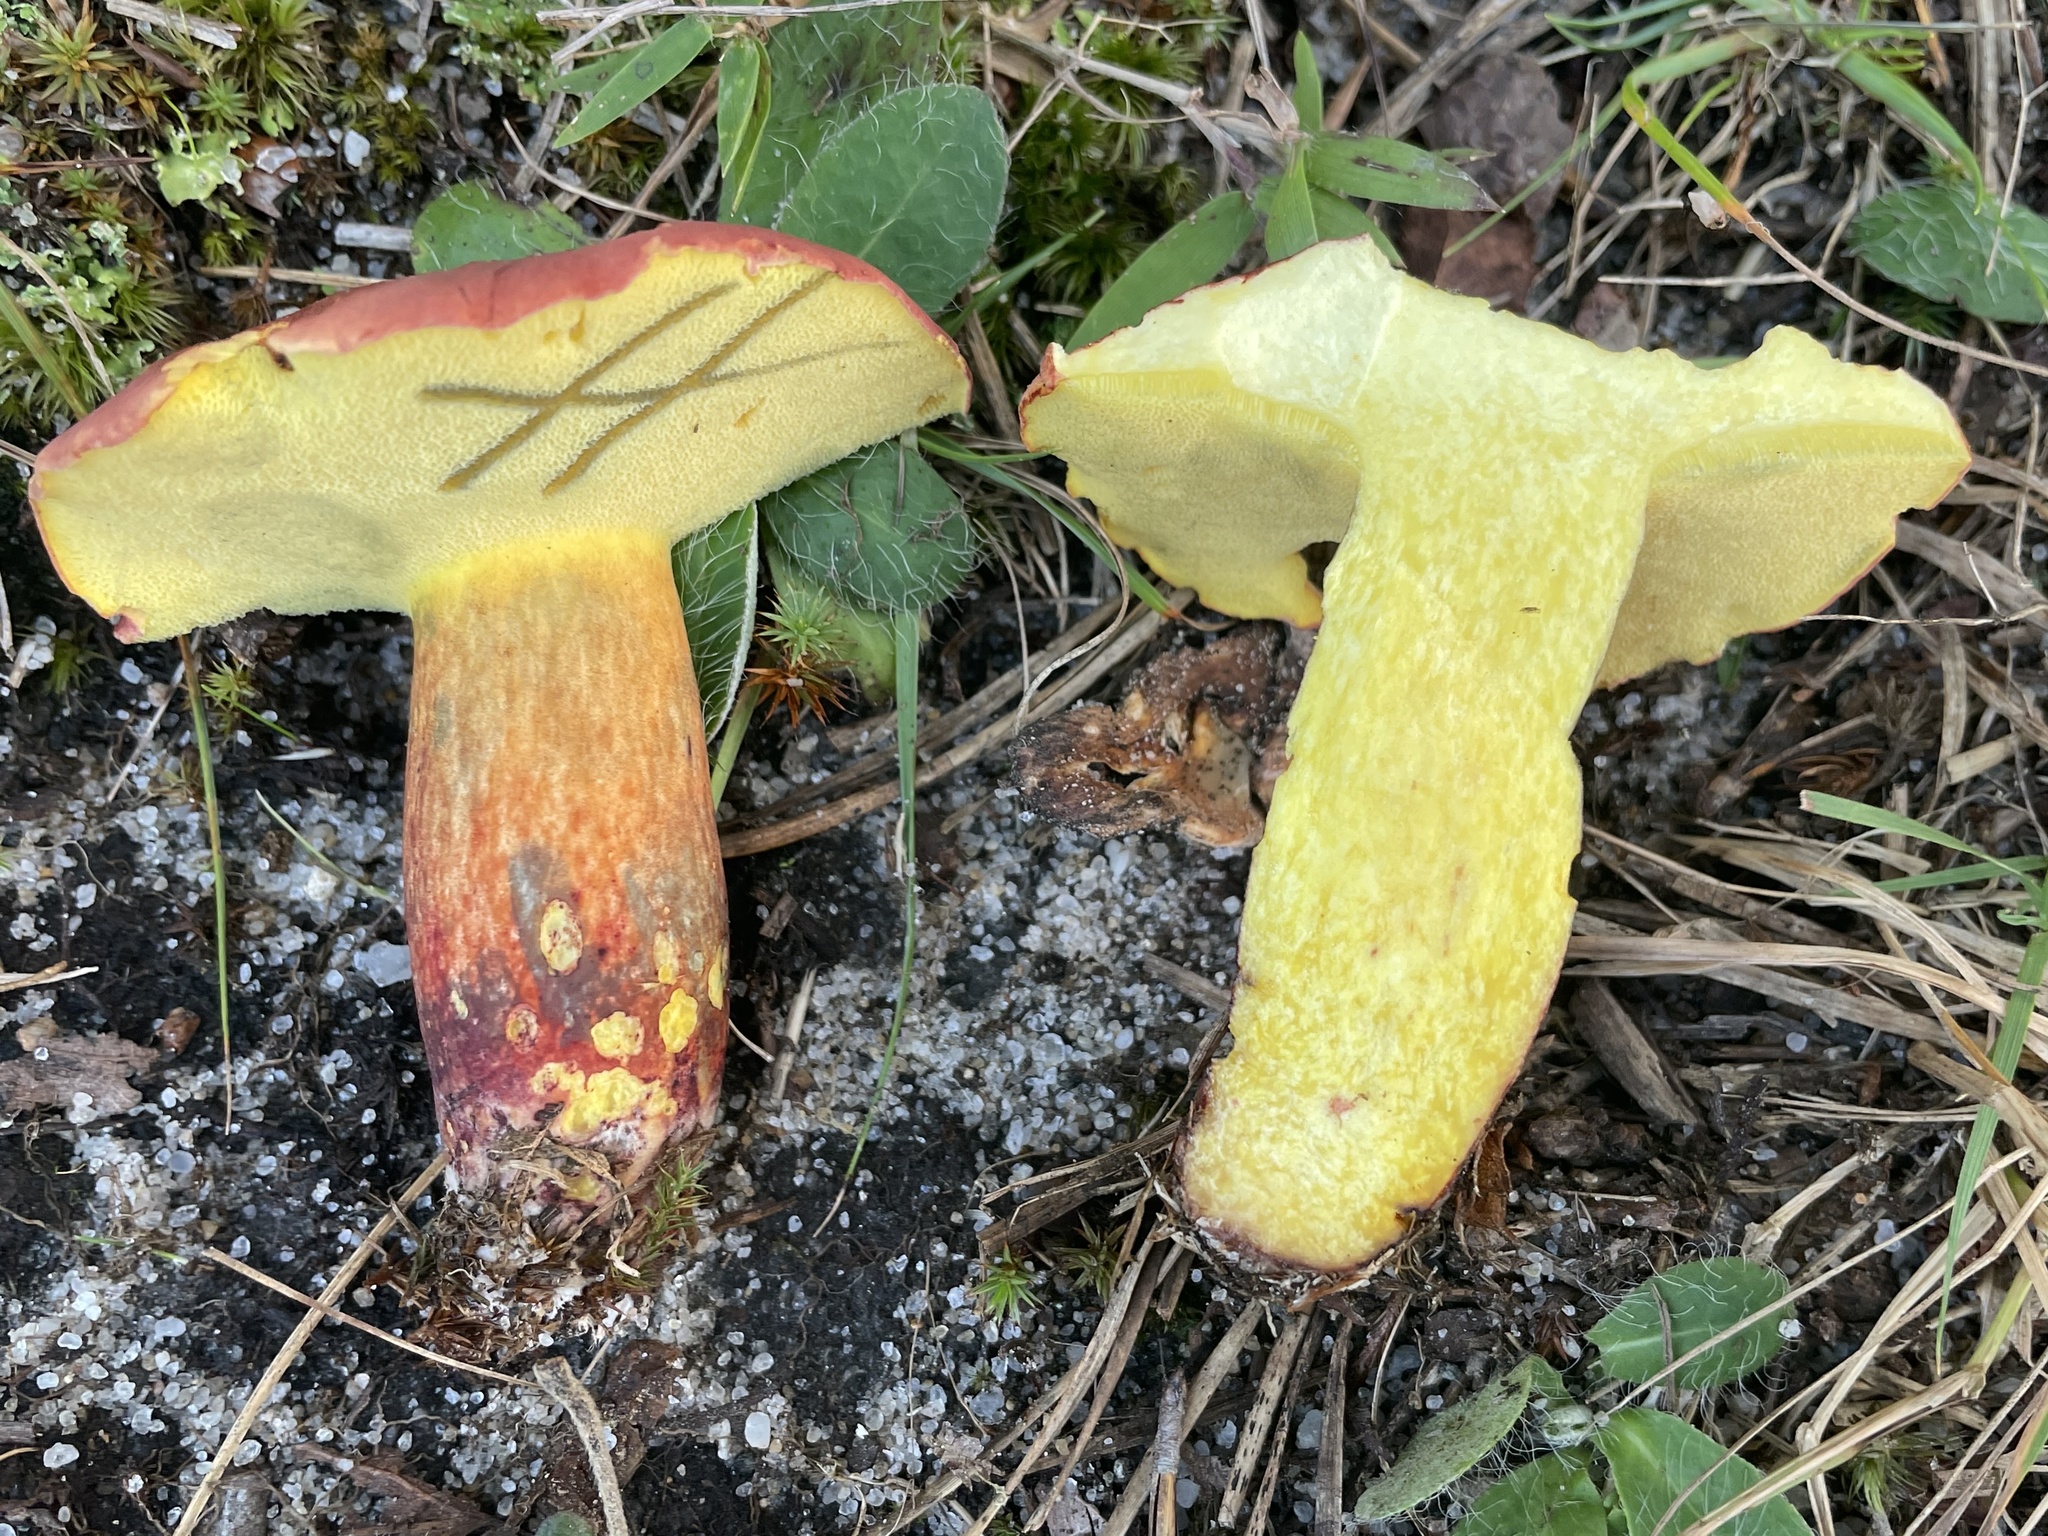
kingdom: Fungi
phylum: Basidiomycota
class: Agaricomycetes
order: Boletales
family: Boletaceae
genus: Baorangia
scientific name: Baorangia bicolor
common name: Two-colored bolete
